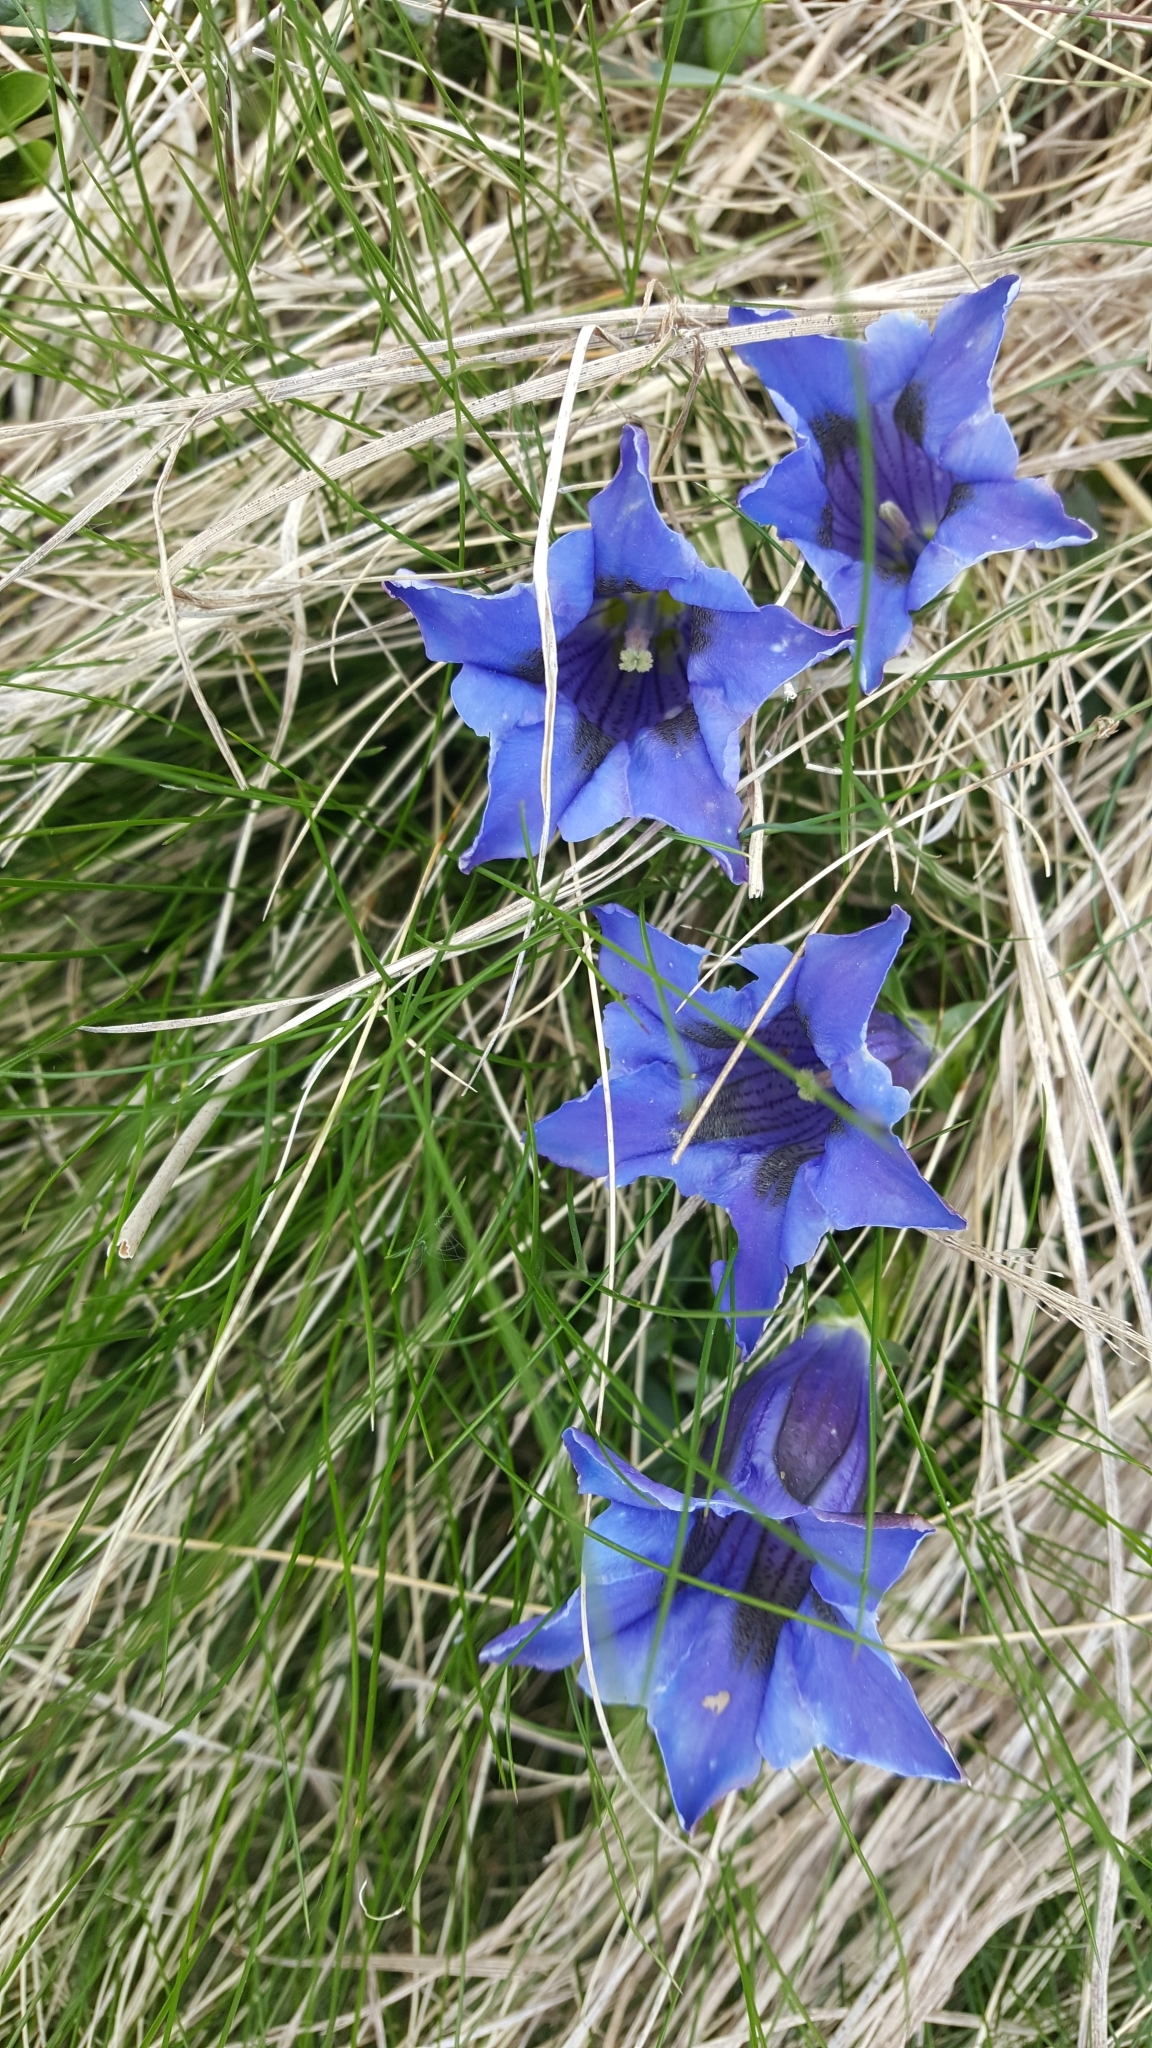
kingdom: Plantae
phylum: Tracheophyta
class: Magnoliopsida
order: Gentianales
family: Gentianaceae
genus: Gentiana
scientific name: Gentiana acaulis
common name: Trumpet gentian
